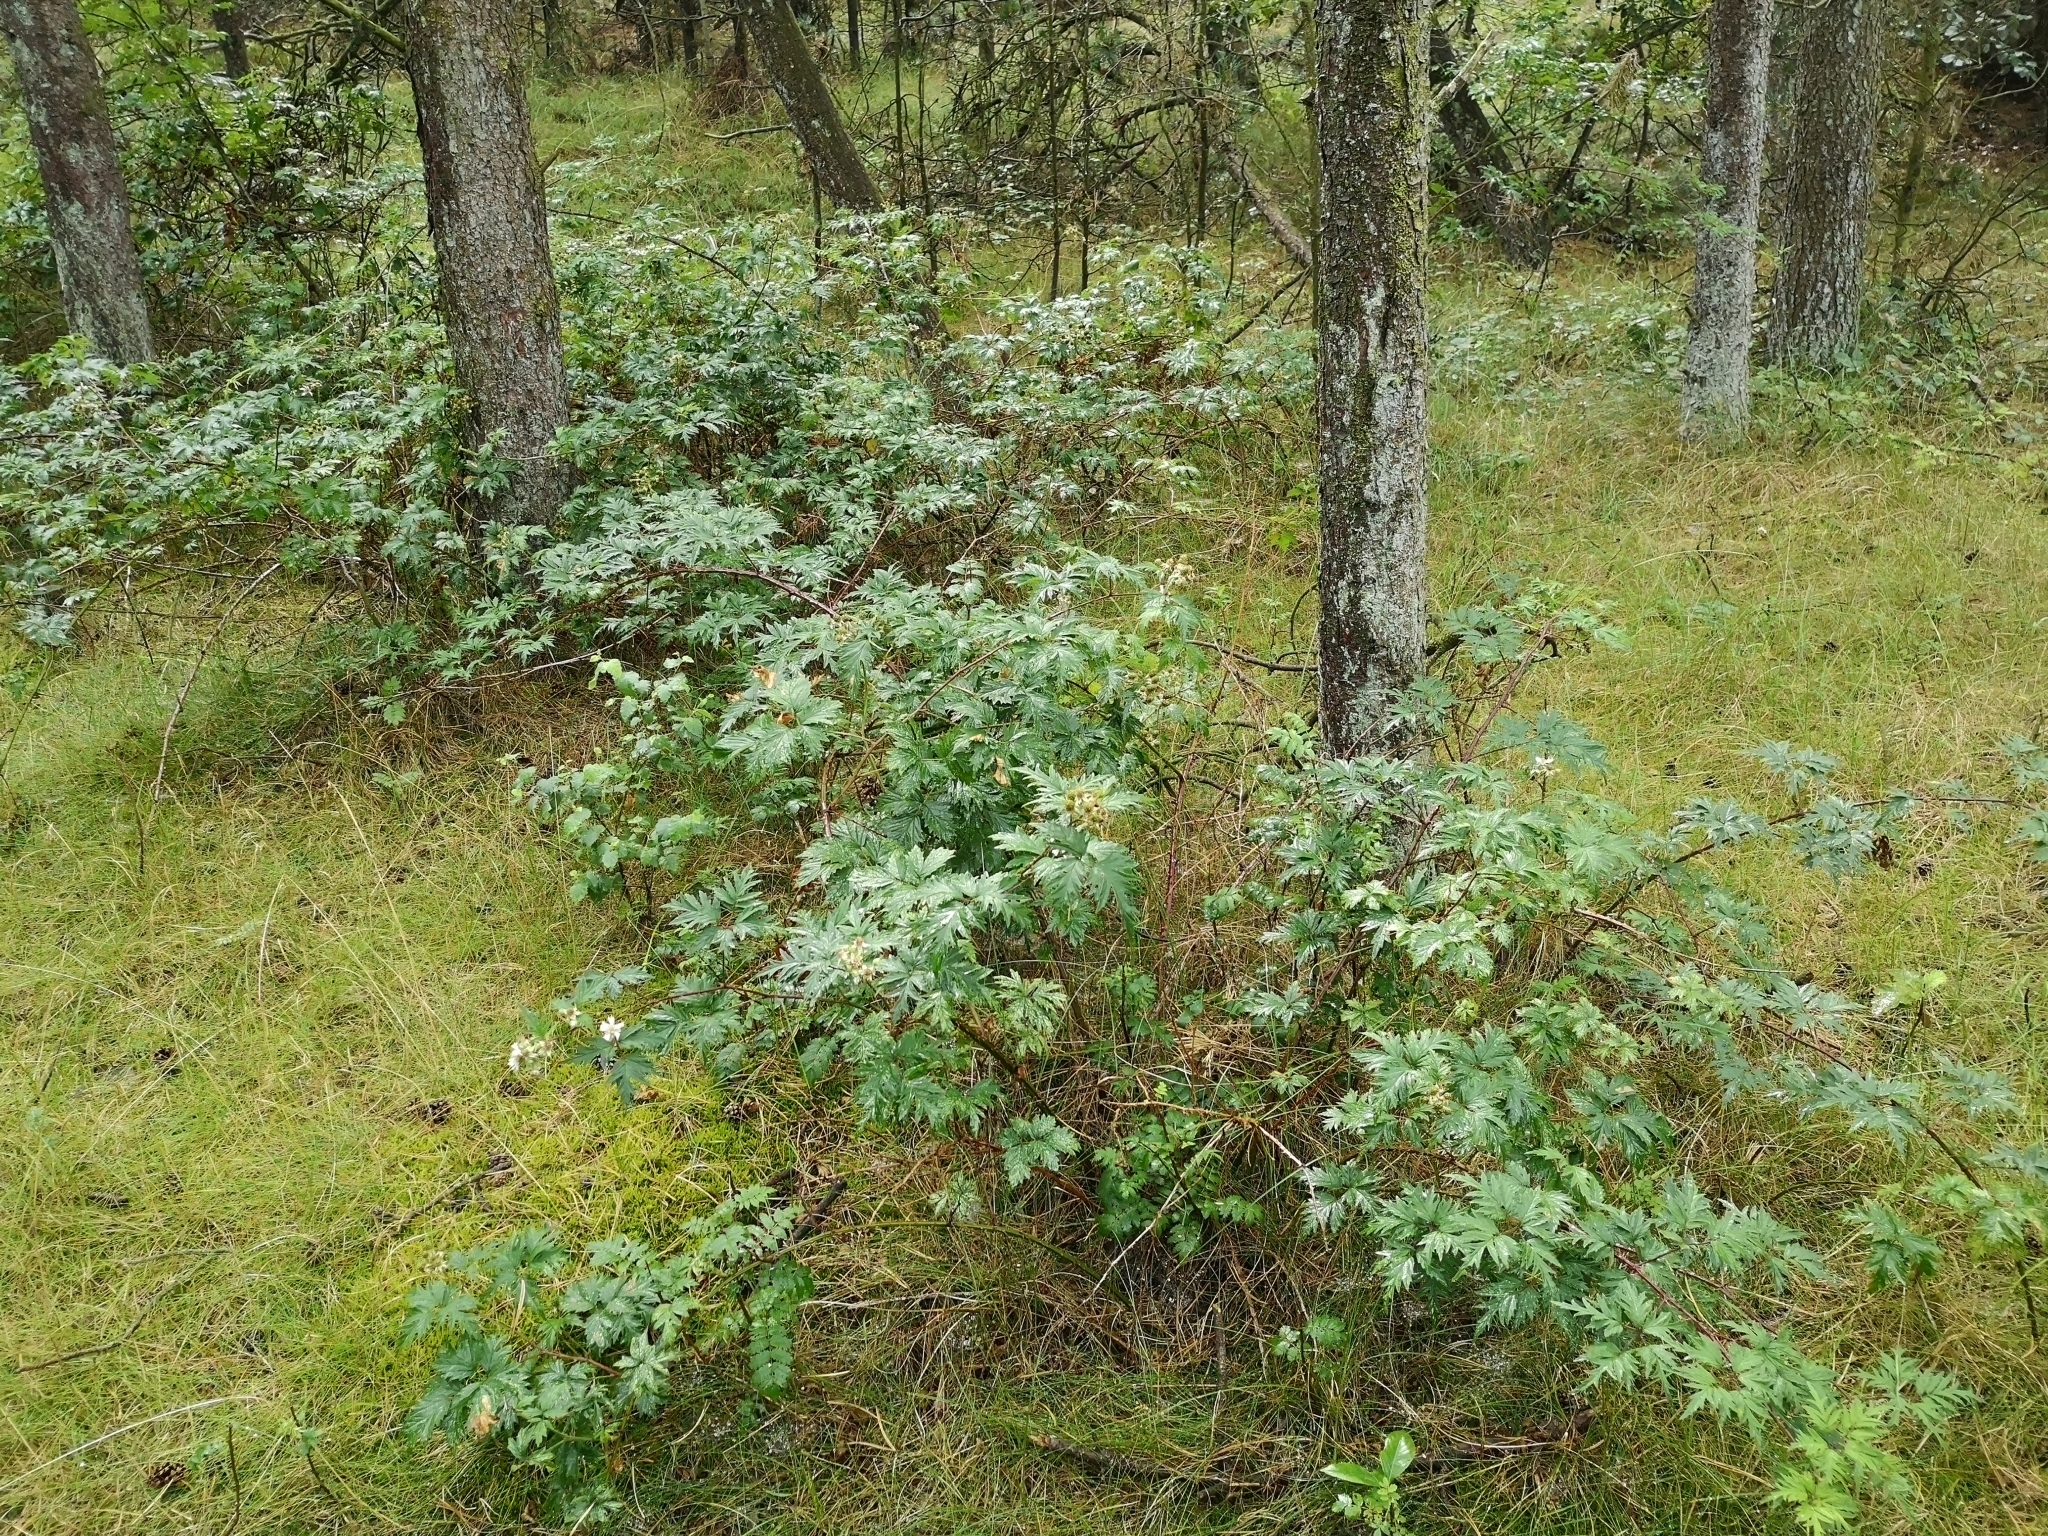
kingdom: Plantae
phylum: Tracheophyta
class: Magnoliopsida
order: Rosales
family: Rosaceae
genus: Rubus
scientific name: Rubus laciniatus
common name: Evergreen blackberry
